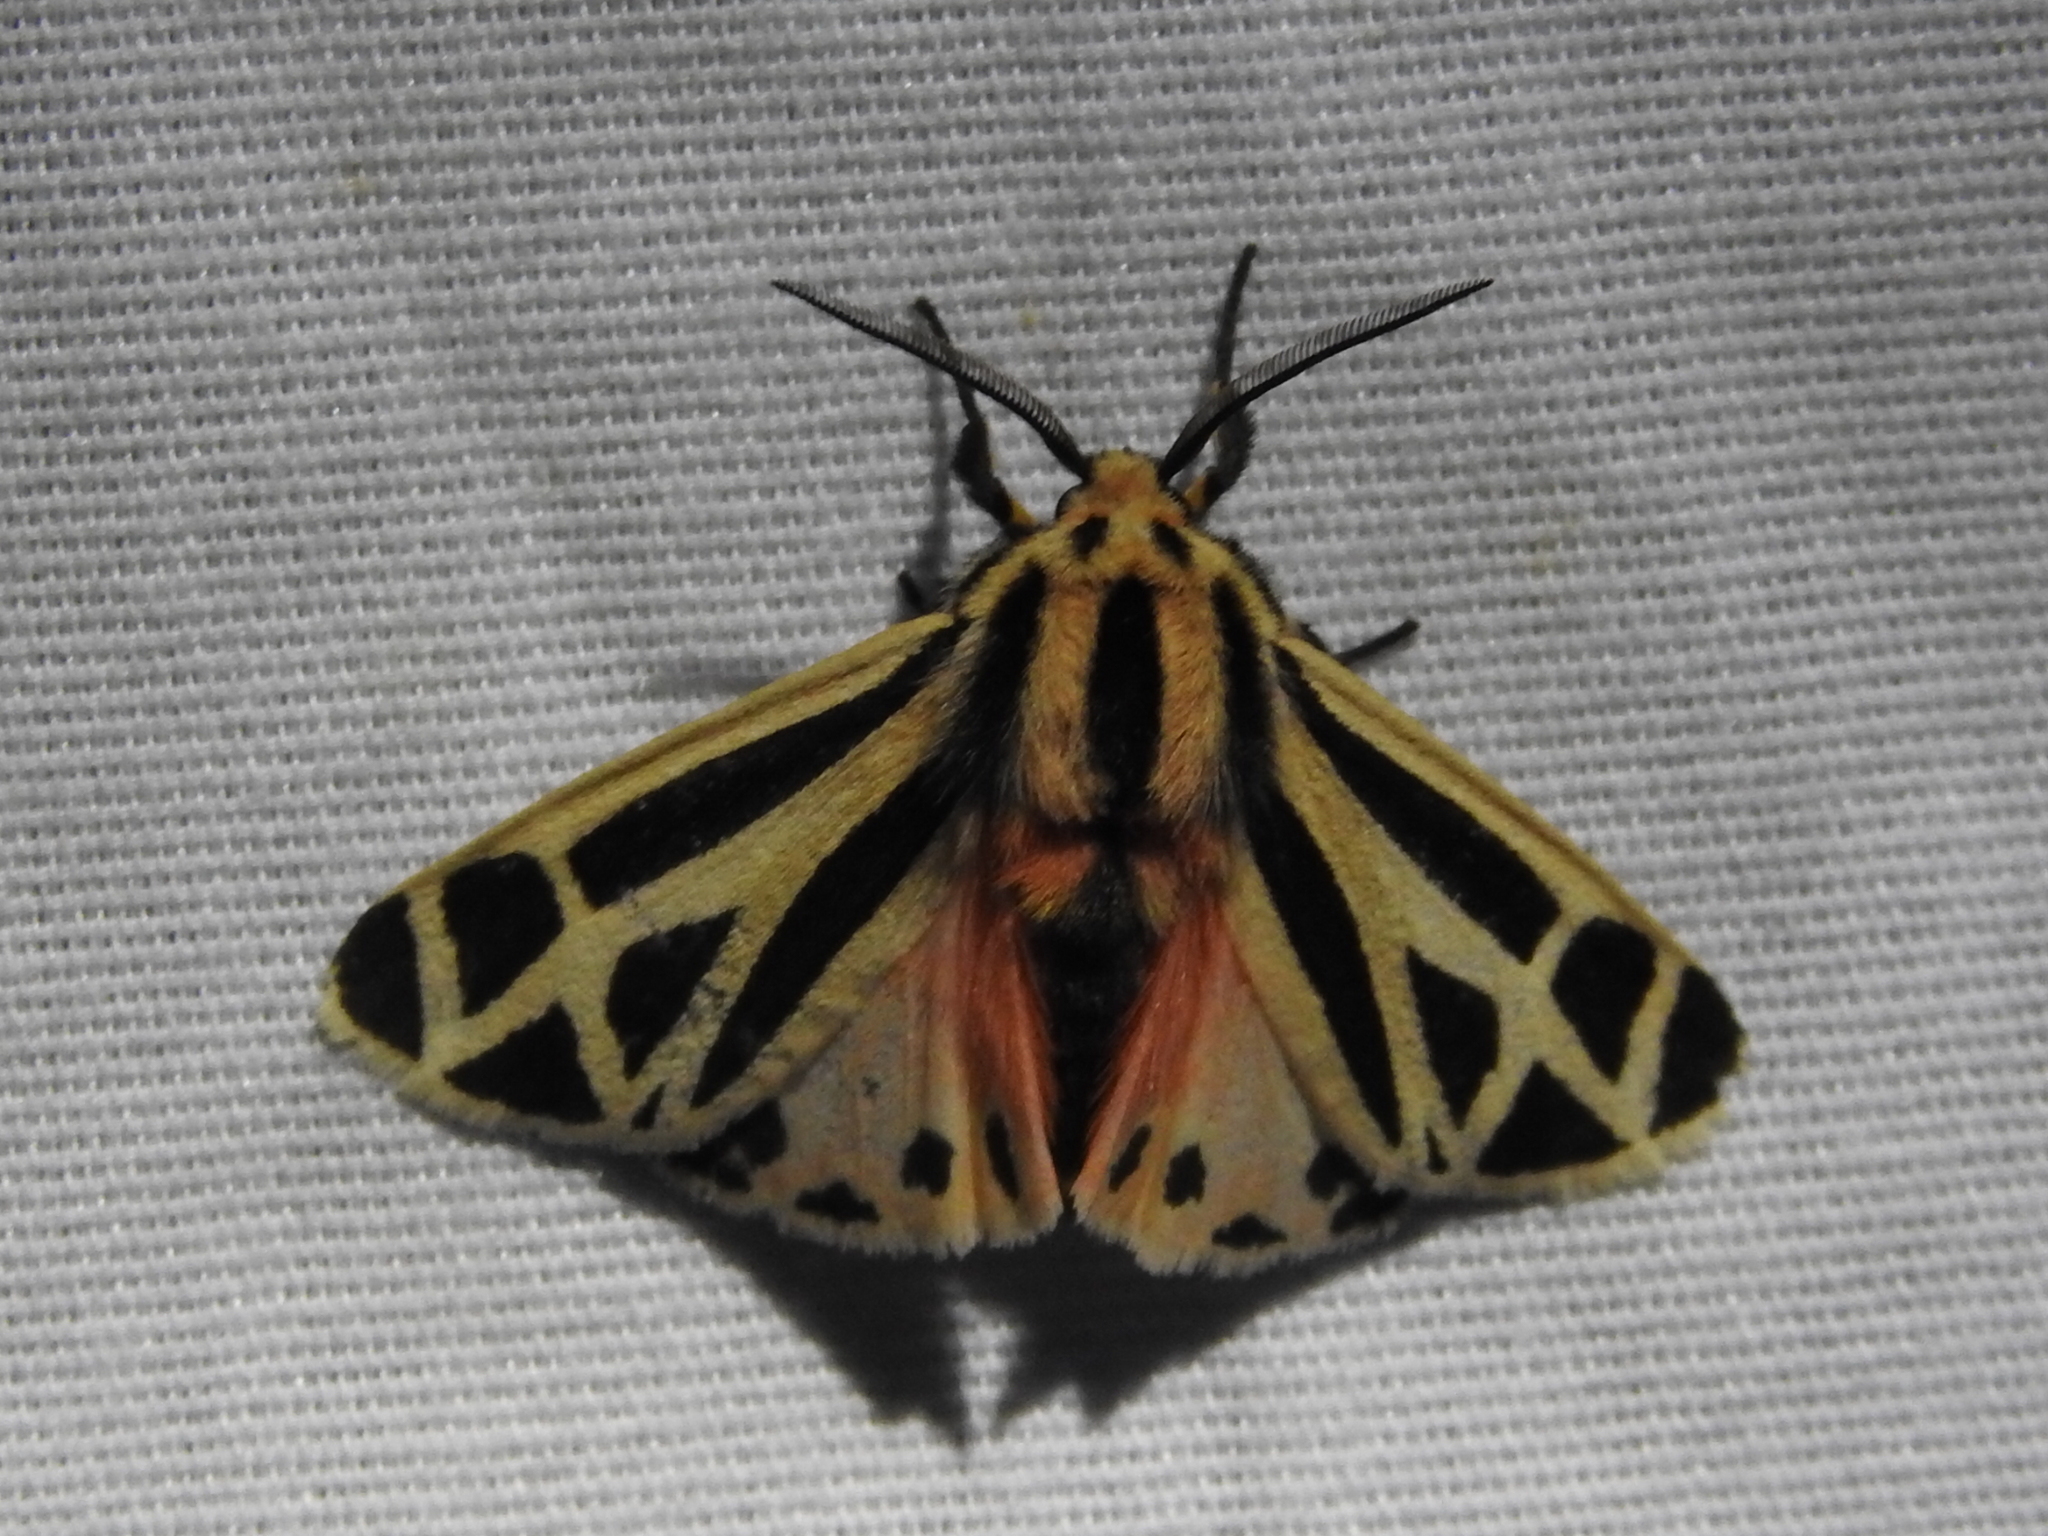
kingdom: Animalia
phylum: Arthropoda
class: Insecta
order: Lepidoptera
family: Erebidae
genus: Apantesis
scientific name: Apantesis phalerata
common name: Harnessed tiger moth
